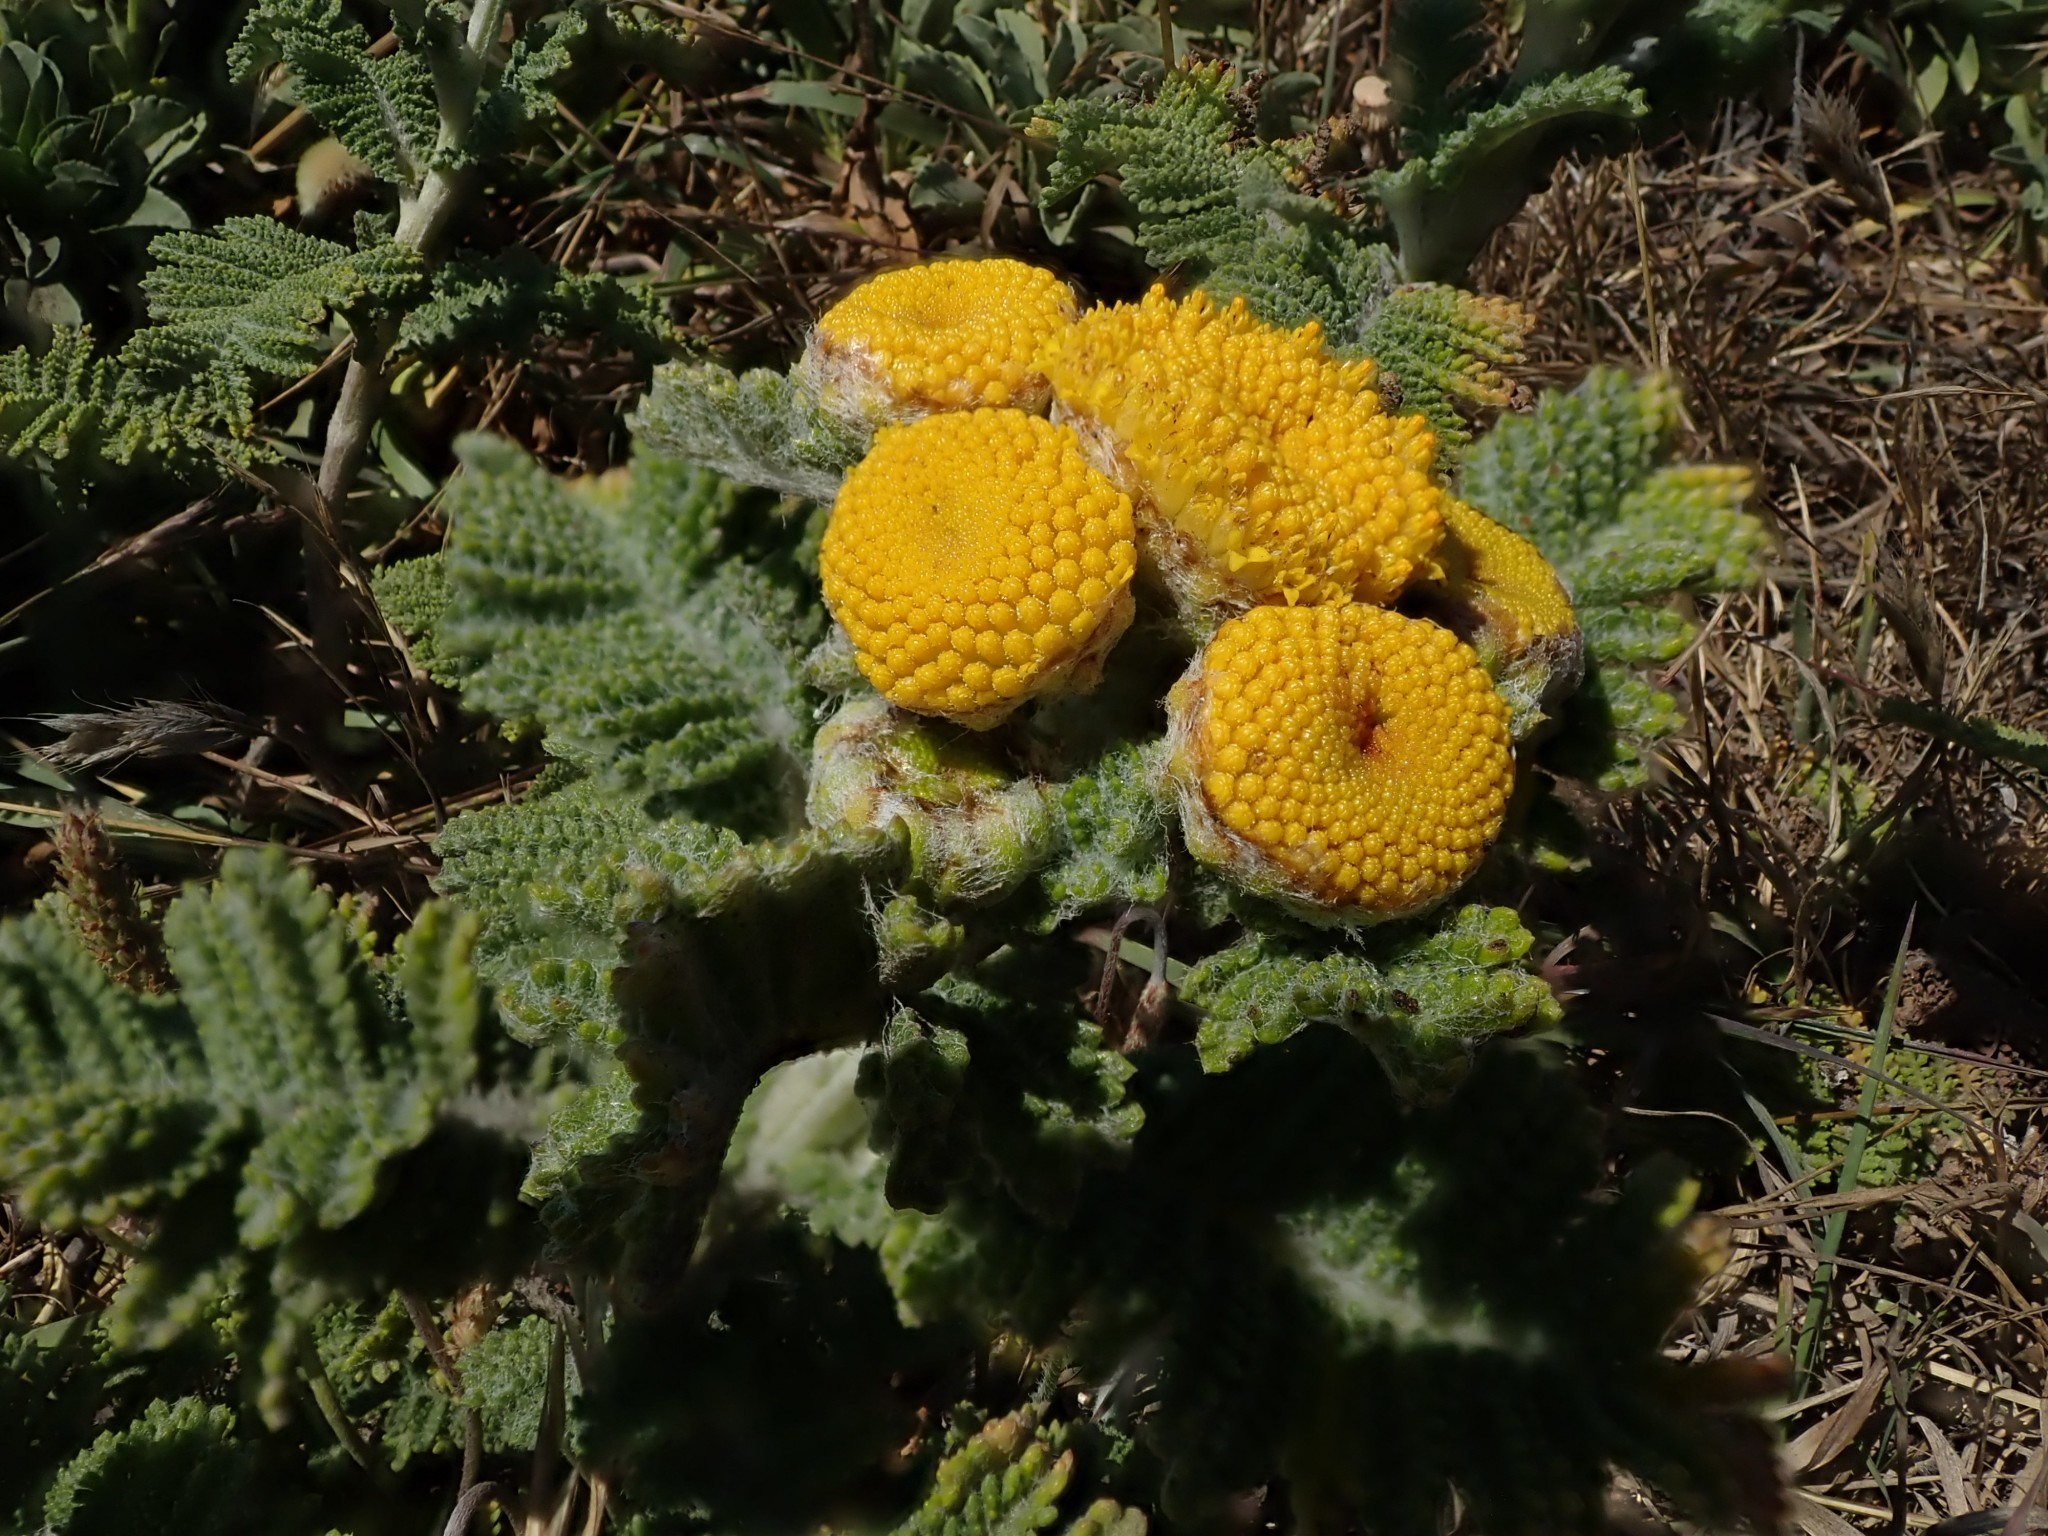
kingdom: Plantae
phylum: Tracheophyta
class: Magnoliopsida
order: Asterales
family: Asteraceae
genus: Tanacetum
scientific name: Tanacetum bipinnatum
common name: Dwarf tansy
